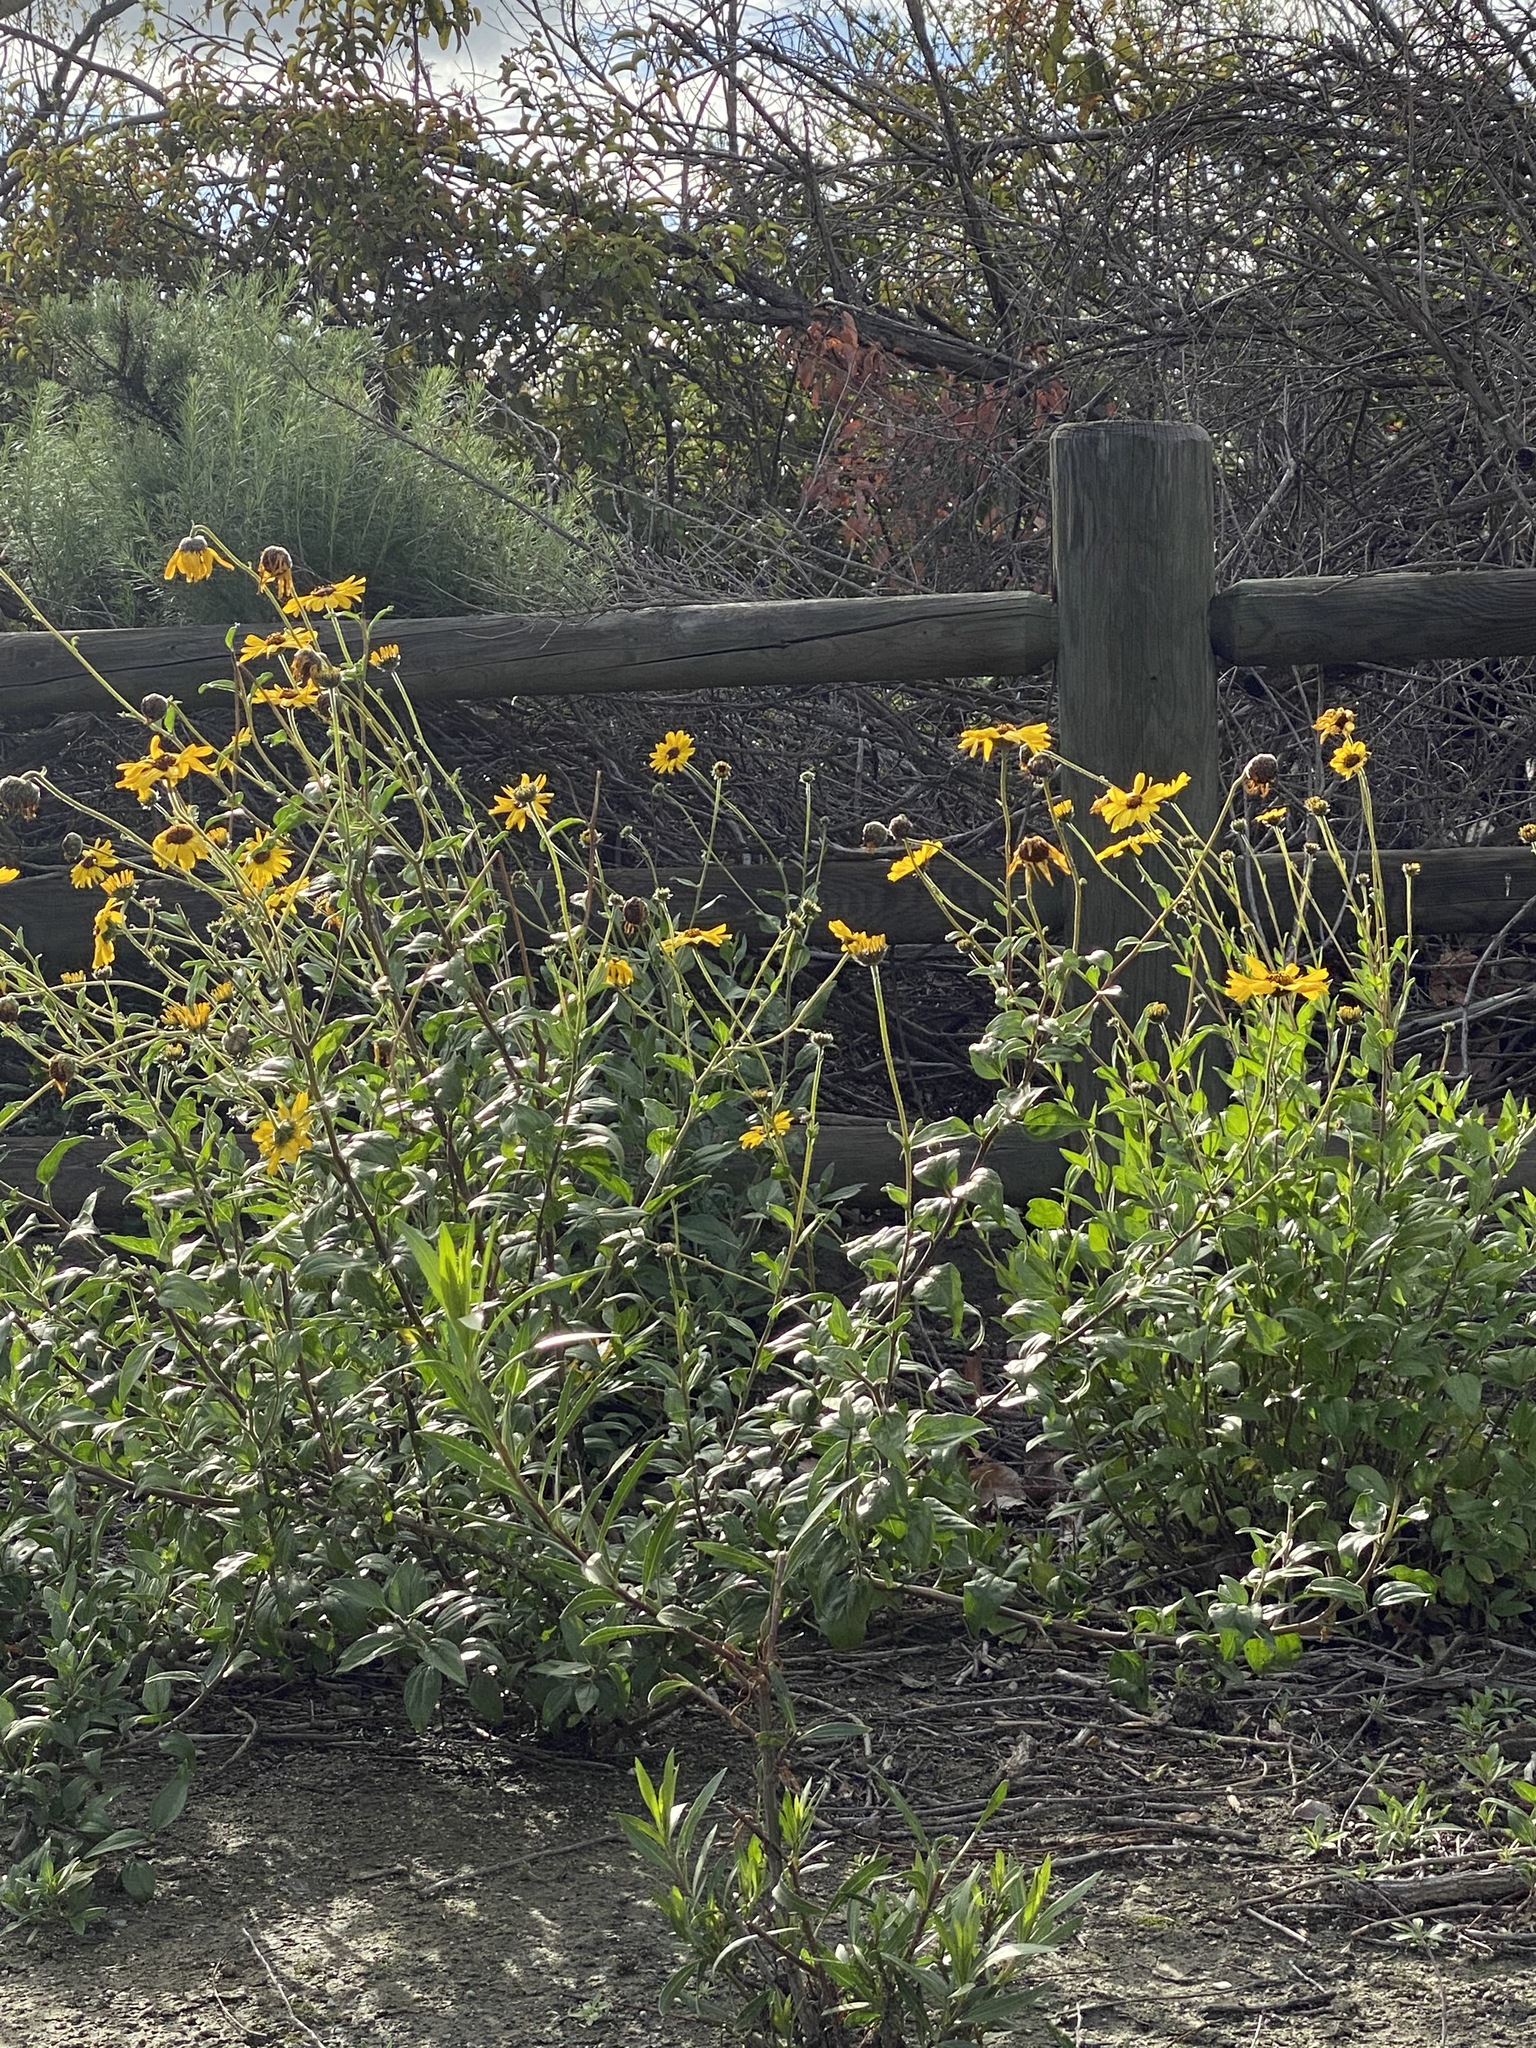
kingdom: Plantae
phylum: Tracheophyta
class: Magnoliopsida
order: Asterales
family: Asteraceae
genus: Encelia
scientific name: Encelia californica
